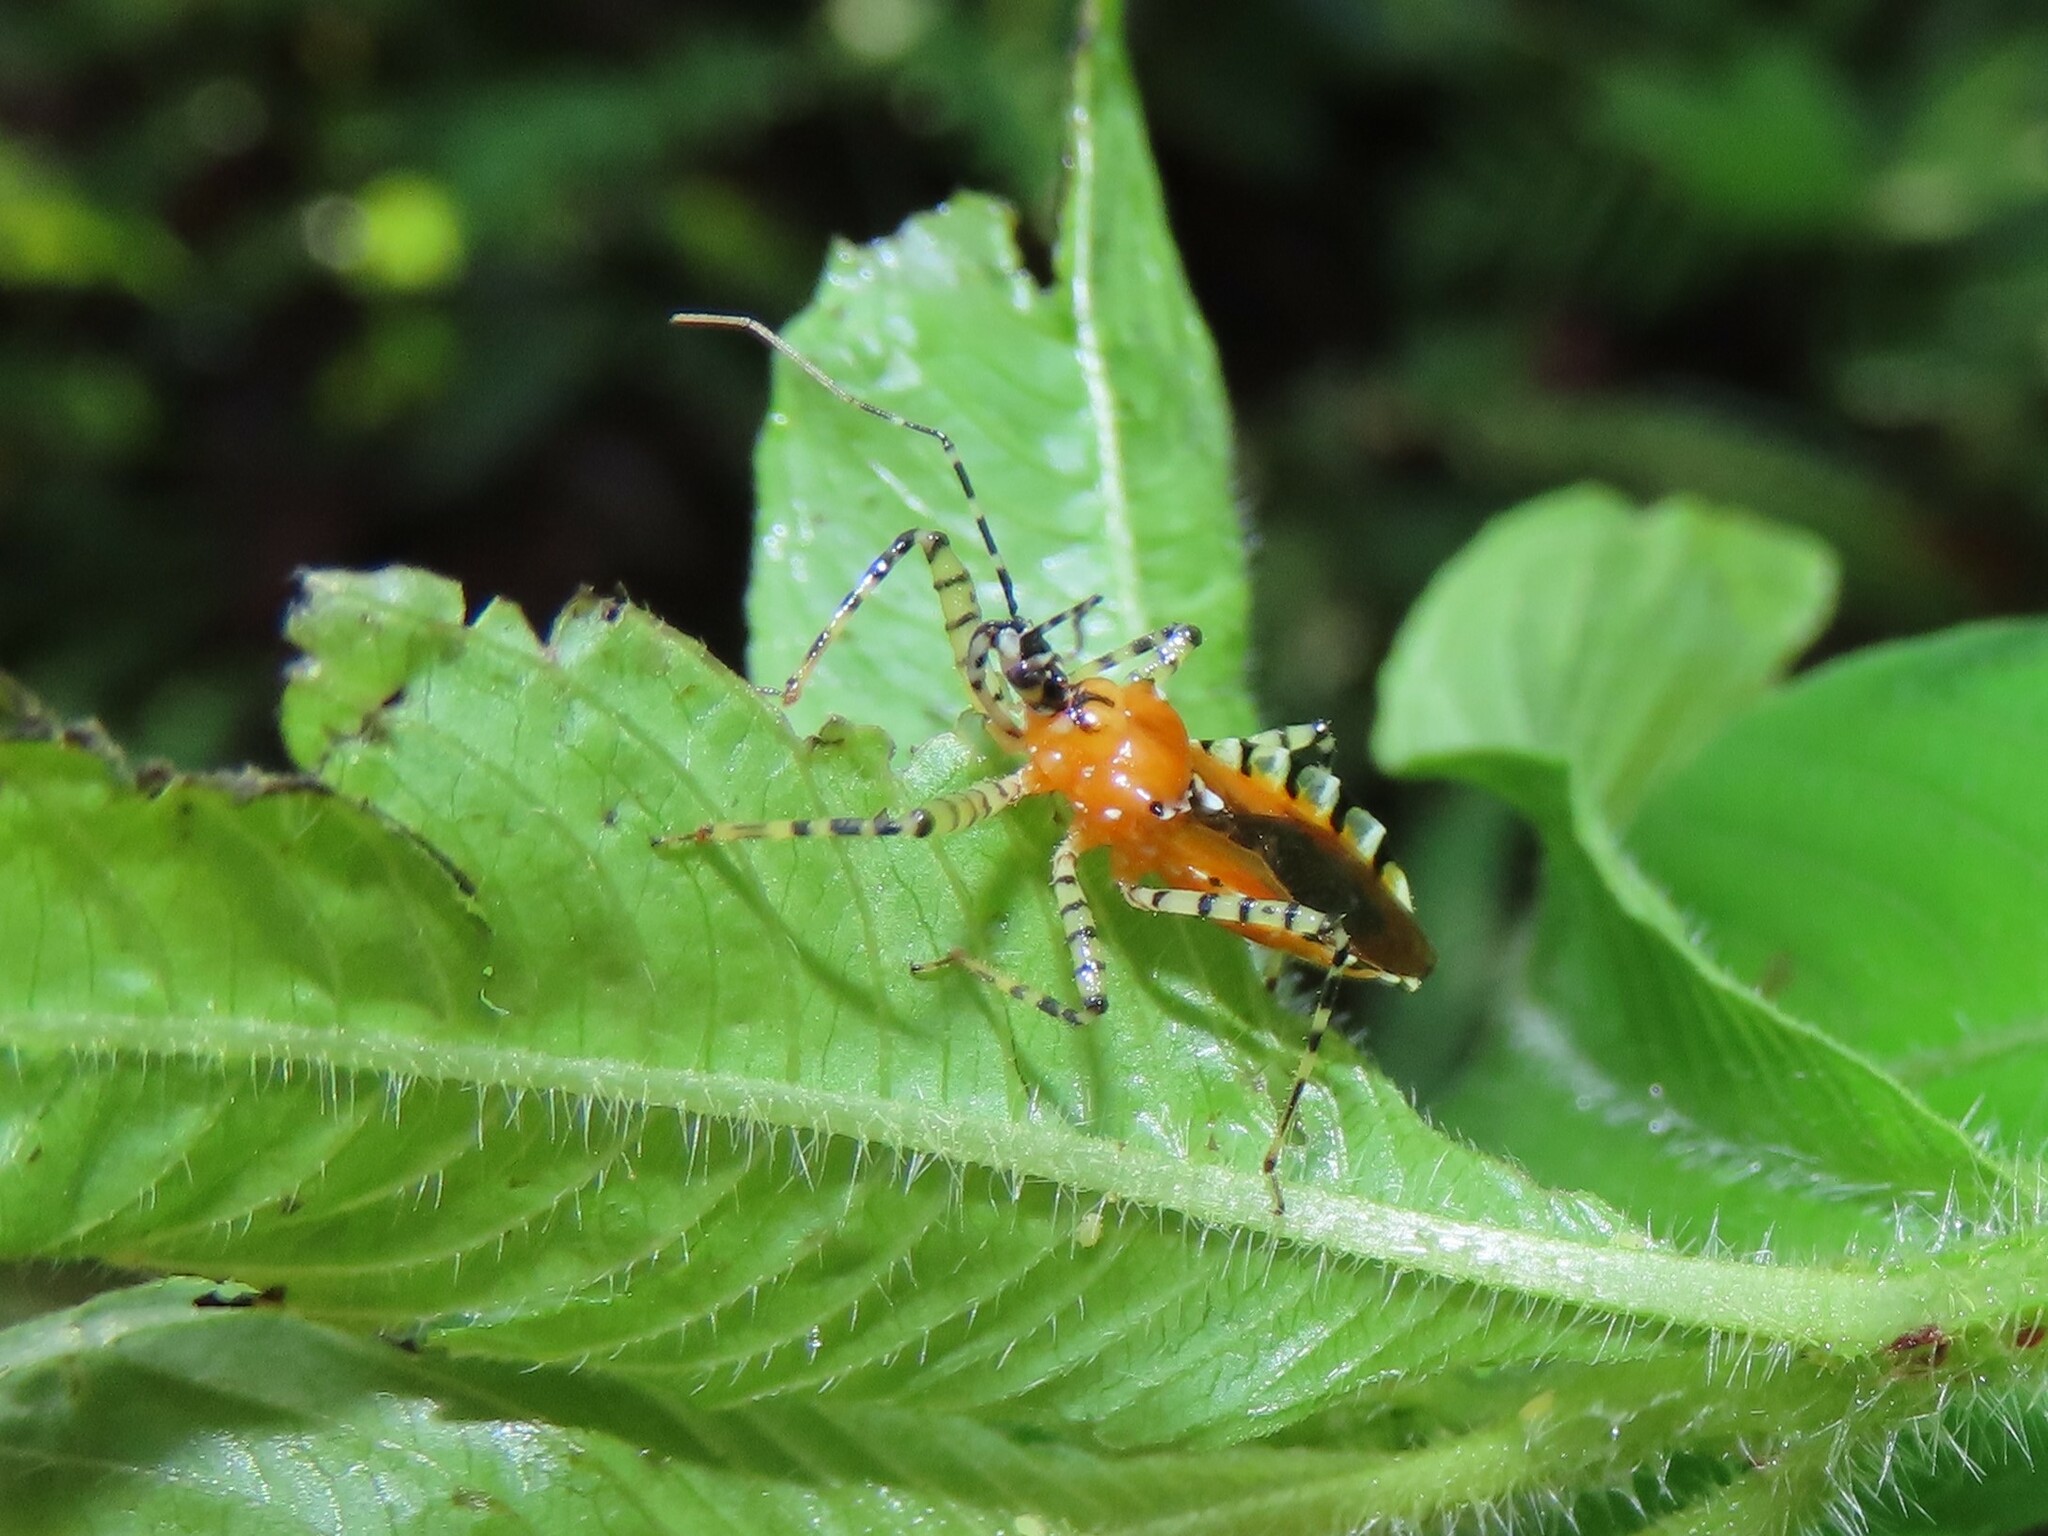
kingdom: Animalia
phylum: Arthropoda
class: Insecta
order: Hemiptera
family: Reduviidae
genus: Pselliopus
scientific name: Pselliopus cinctus
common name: Ringed assassin bug
